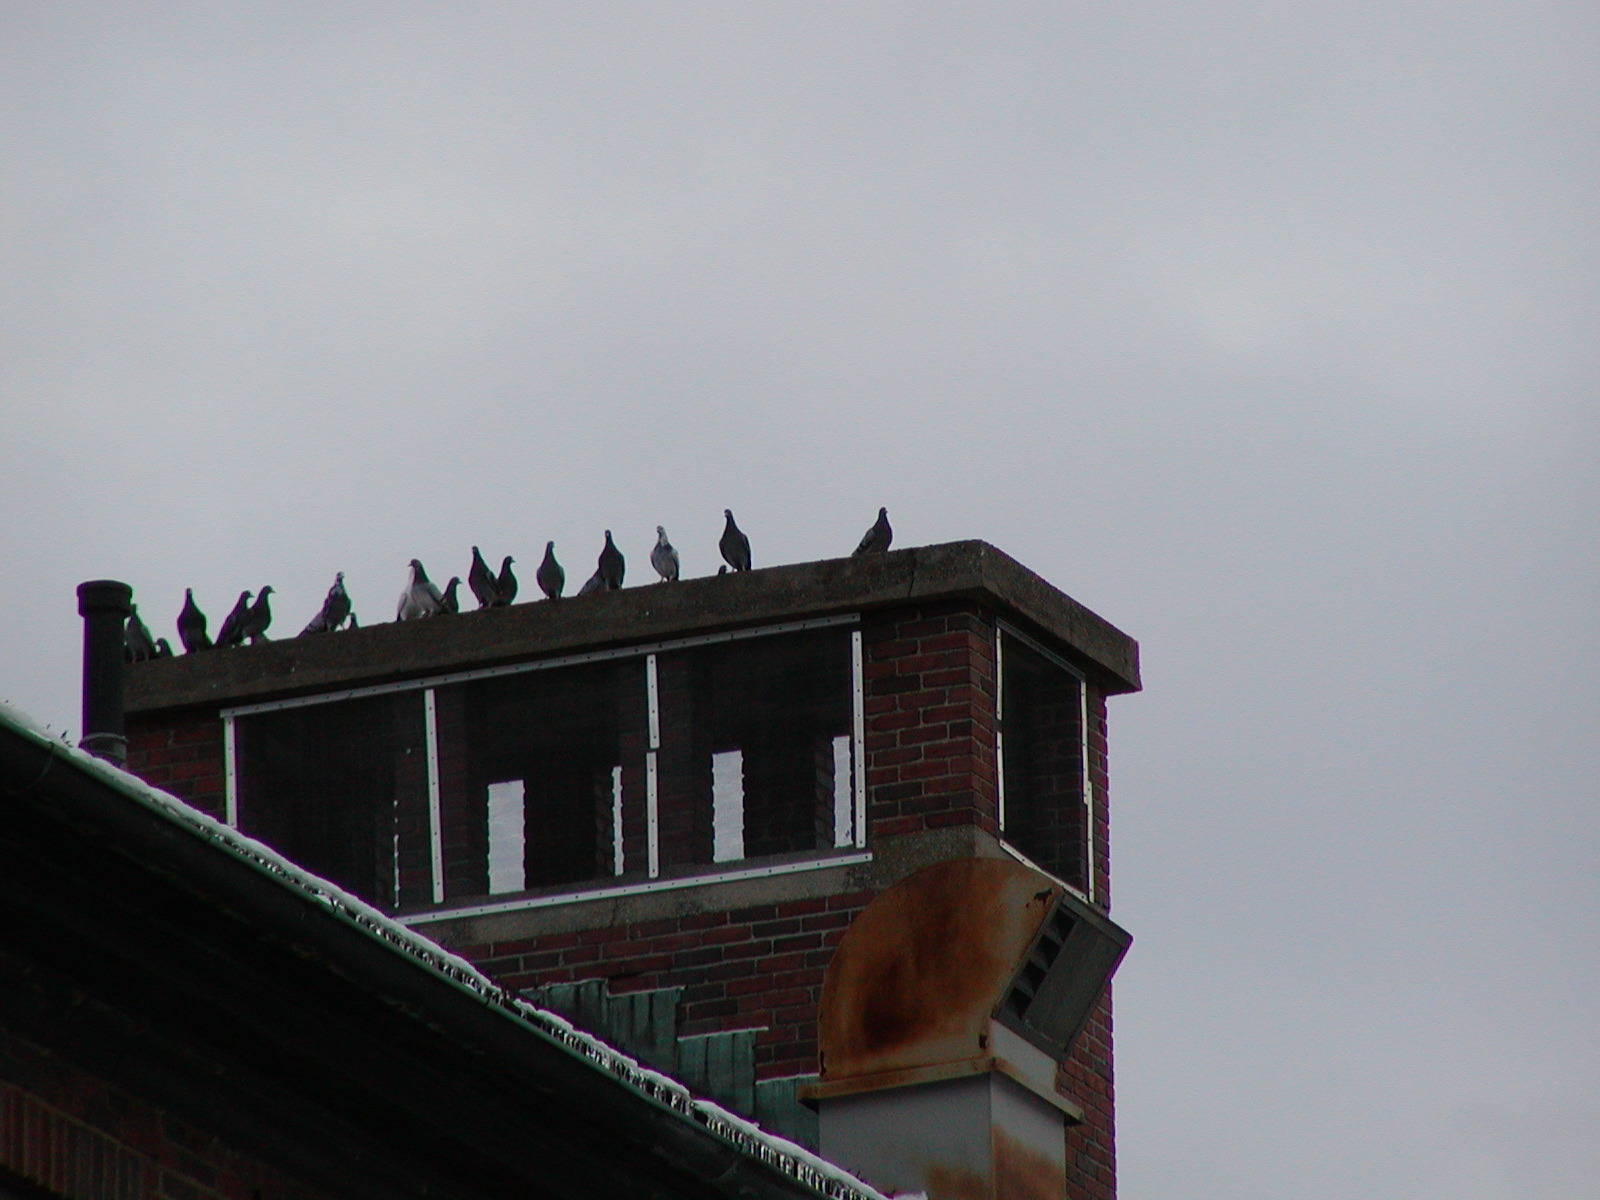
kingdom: Animalia
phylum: Chordata
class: Aves
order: Columbiformes
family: Columbidae
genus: Columba
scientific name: Columba livia
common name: Rock pigeon
